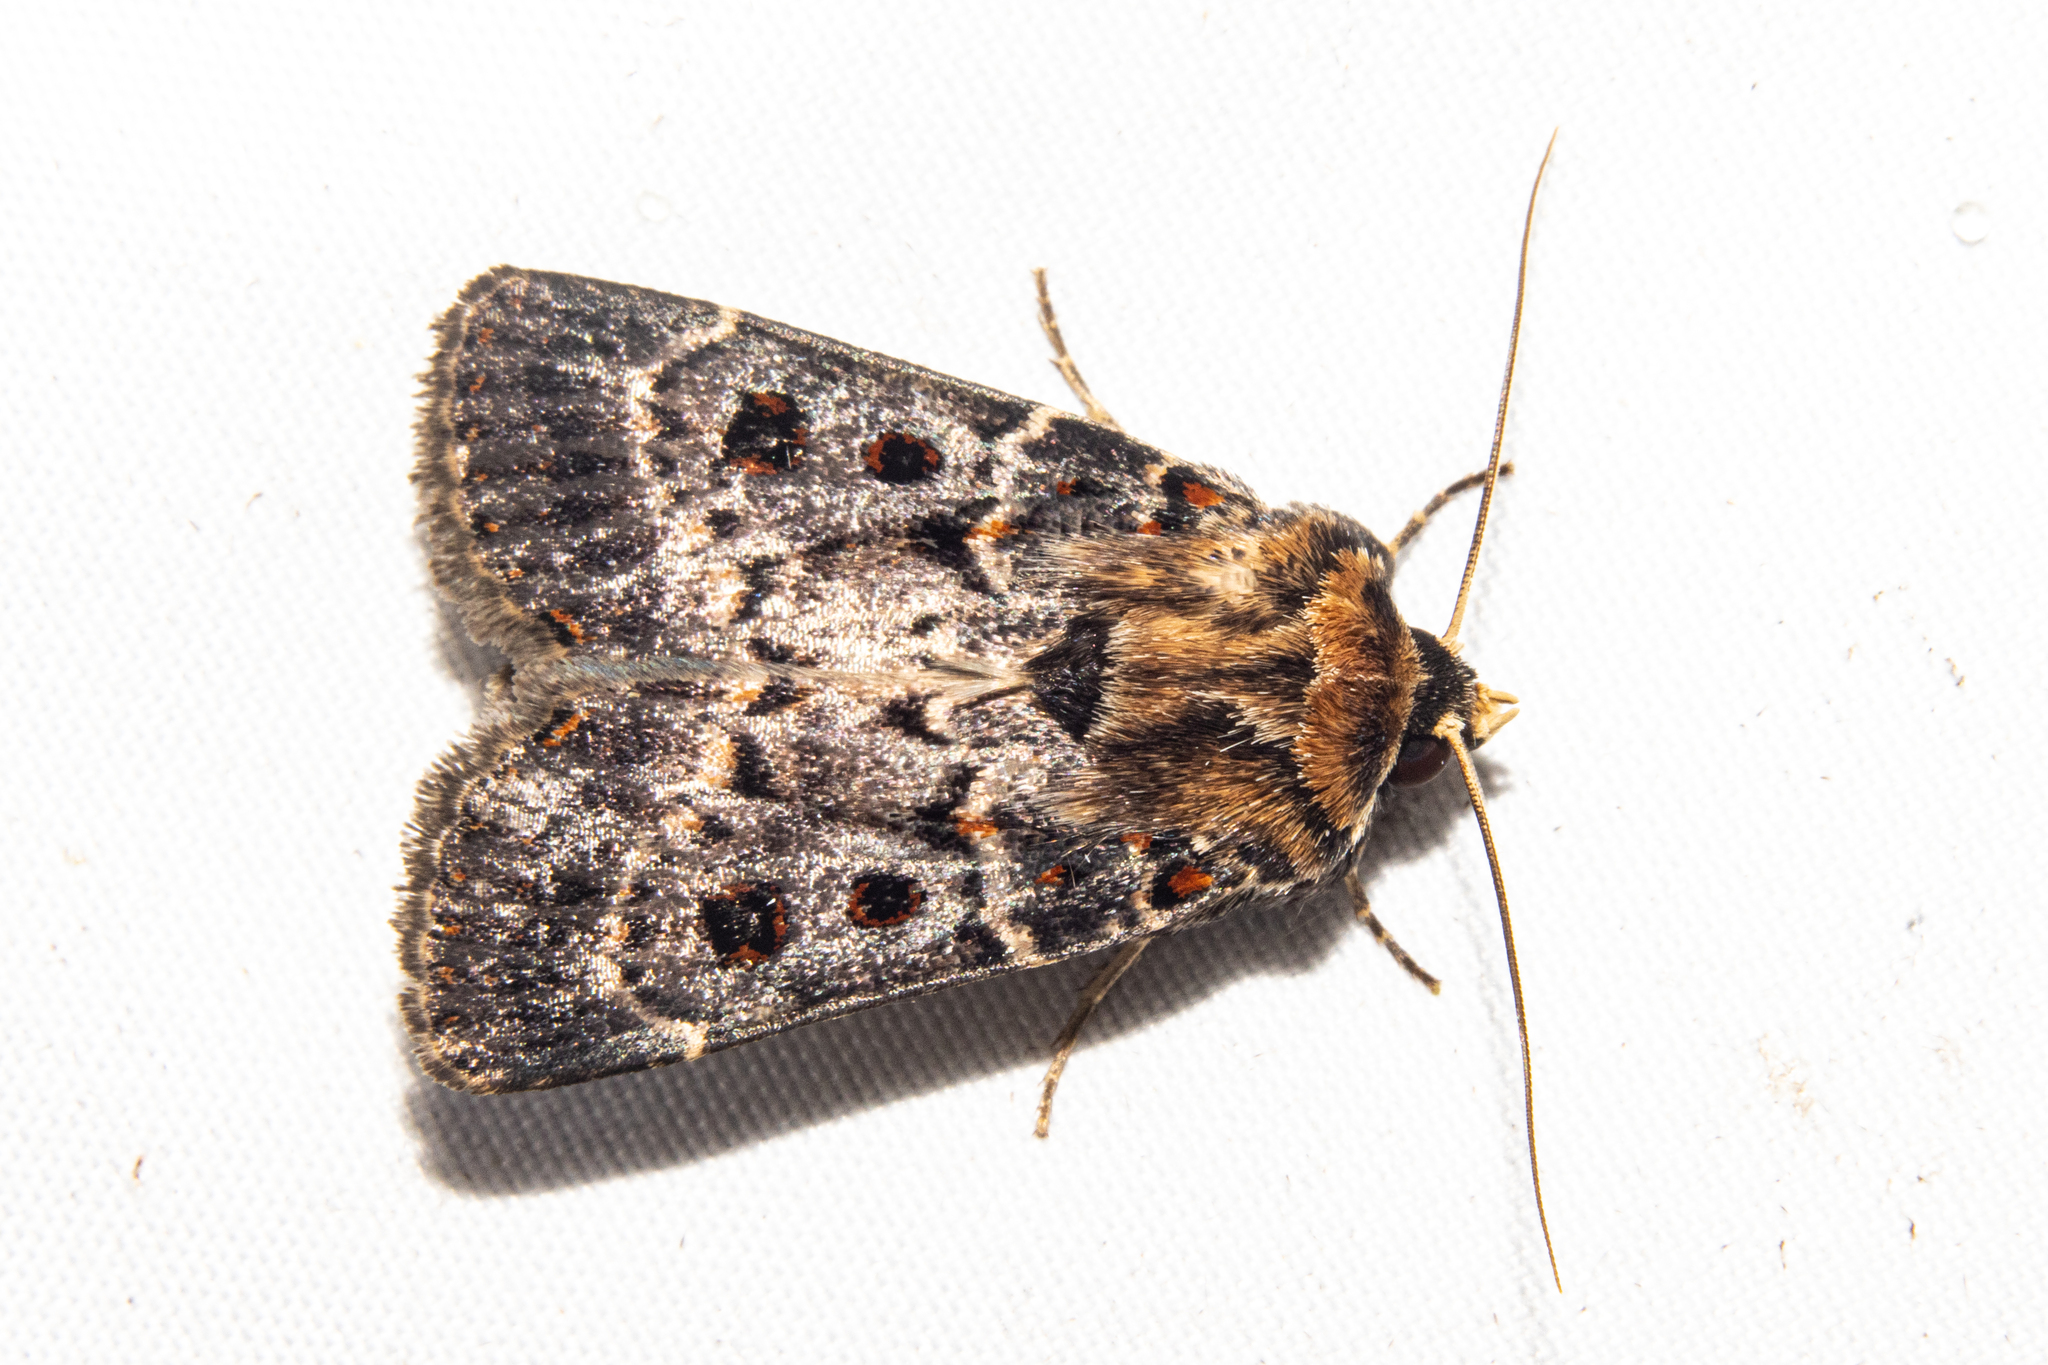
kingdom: Animalia
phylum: Arthropoda
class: Insecta
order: Lepidoptera
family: Noctuidae
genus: Proteuxoa
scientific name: Proteuxoa sanguinipuncta
